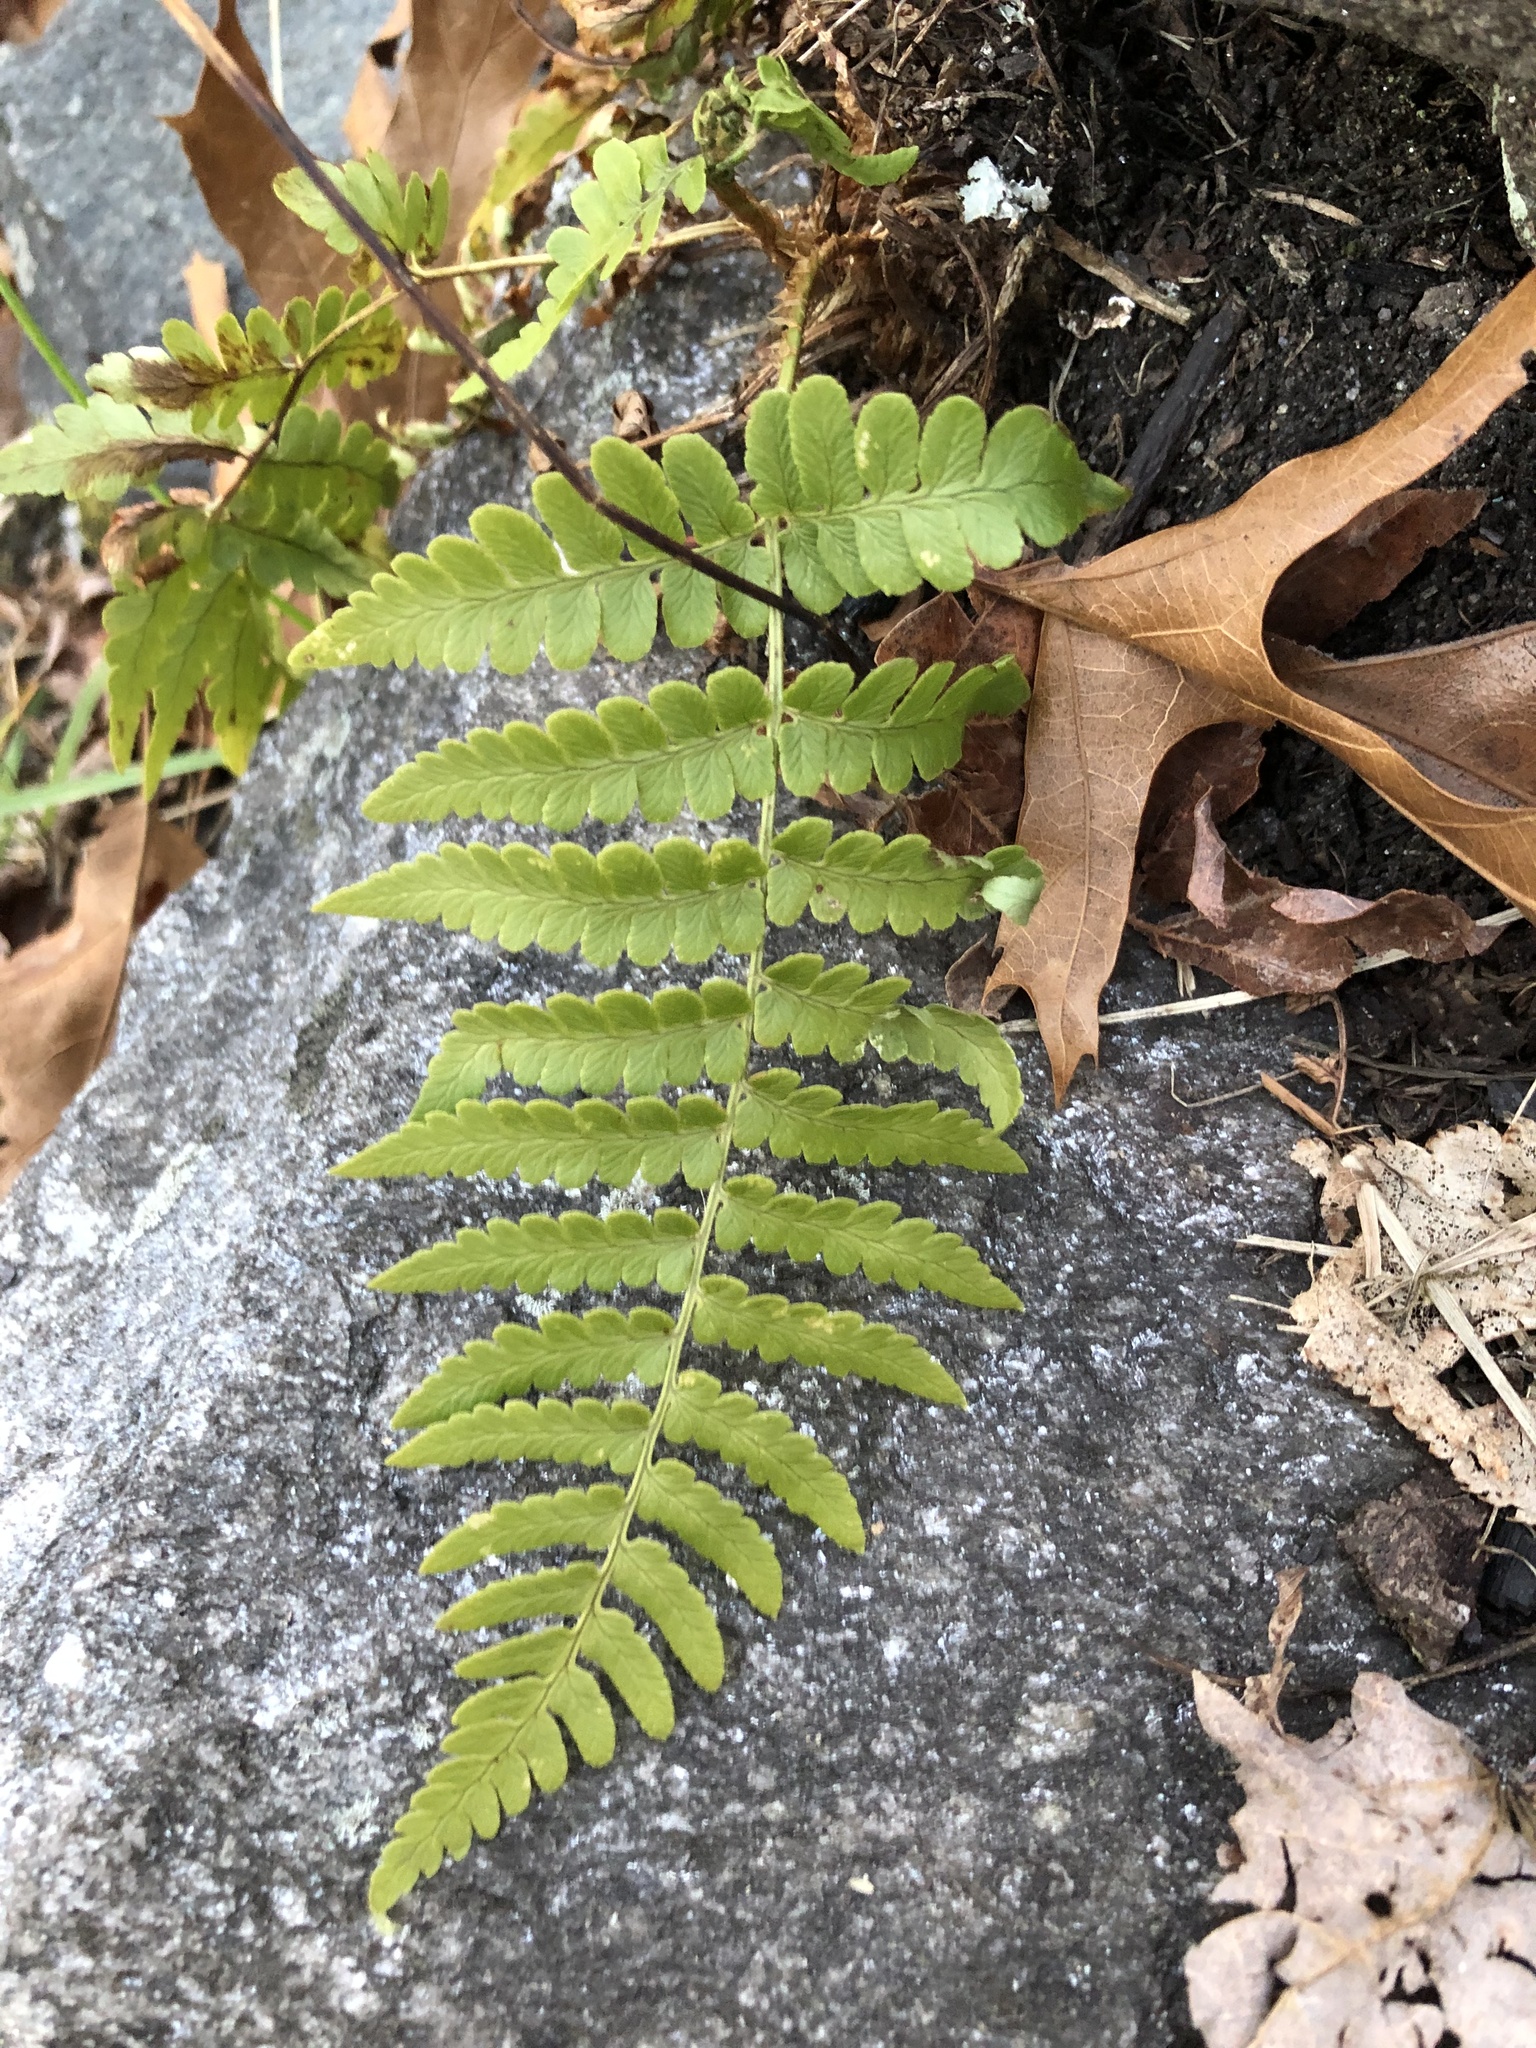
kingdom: Plantae
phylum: Tracheophyta
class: Polypodiopsida
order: Polypodiales
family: Dryopteridaceae
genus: Dryopteris
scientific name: Dryopteris marginalis
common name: Marginal wood fern
